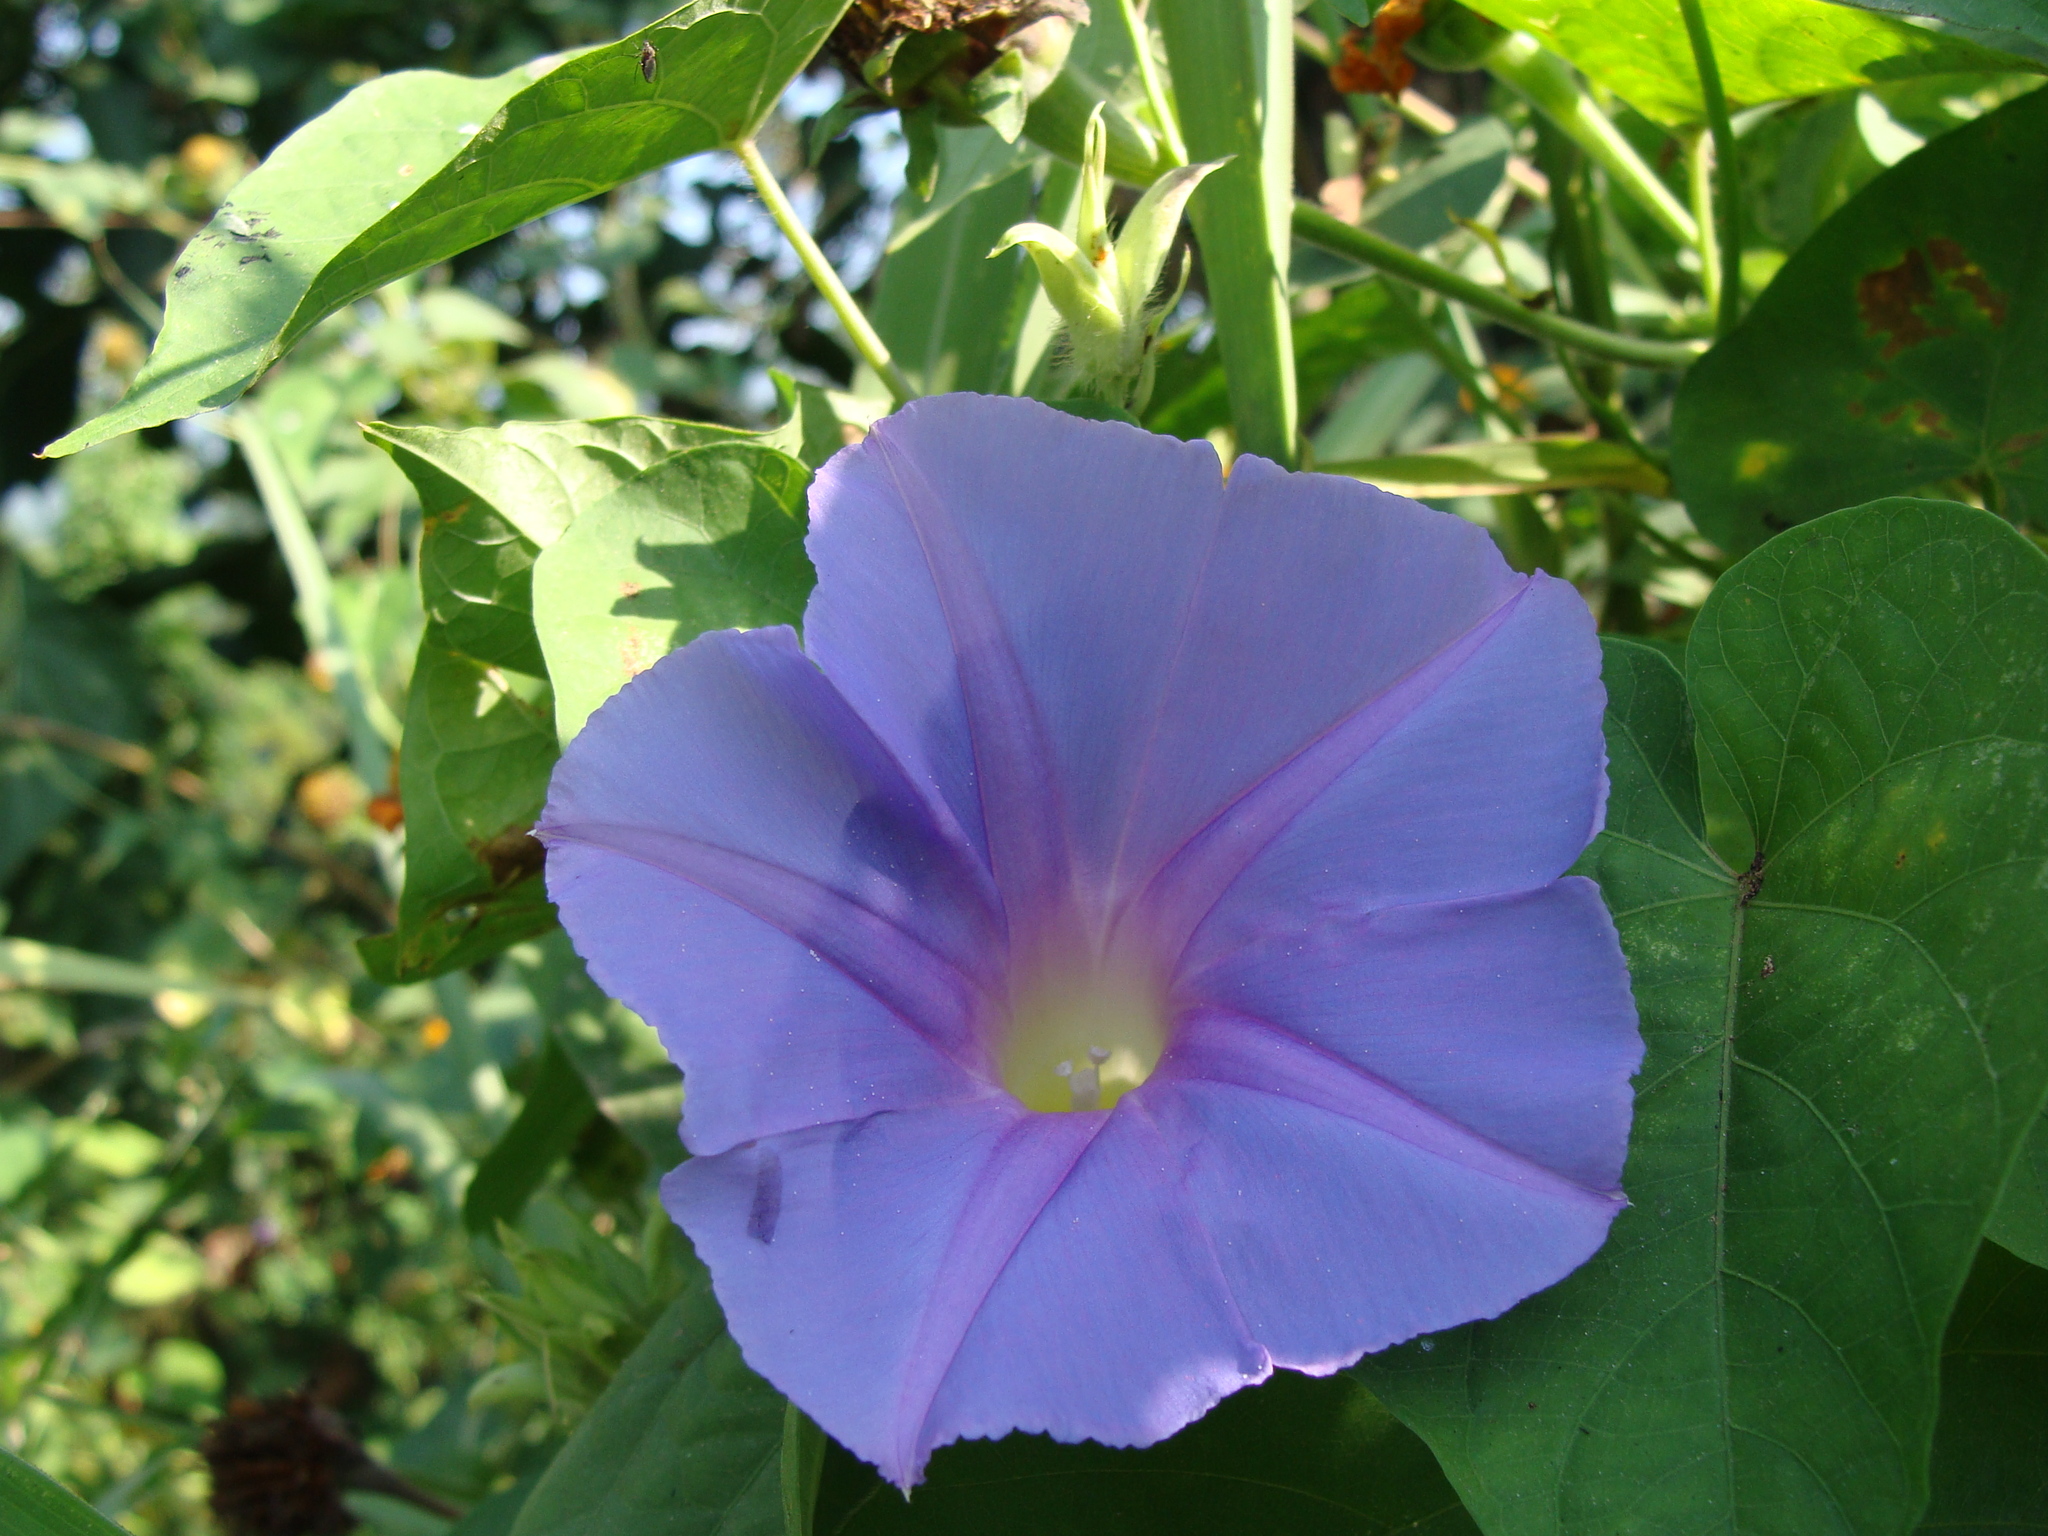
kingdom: Plantae
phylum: Tracheophyta
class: Magnoliopsida
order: Solanales
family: Convolvulaceae
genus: Ipomoea
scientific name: Ipomoea mitchelliae
